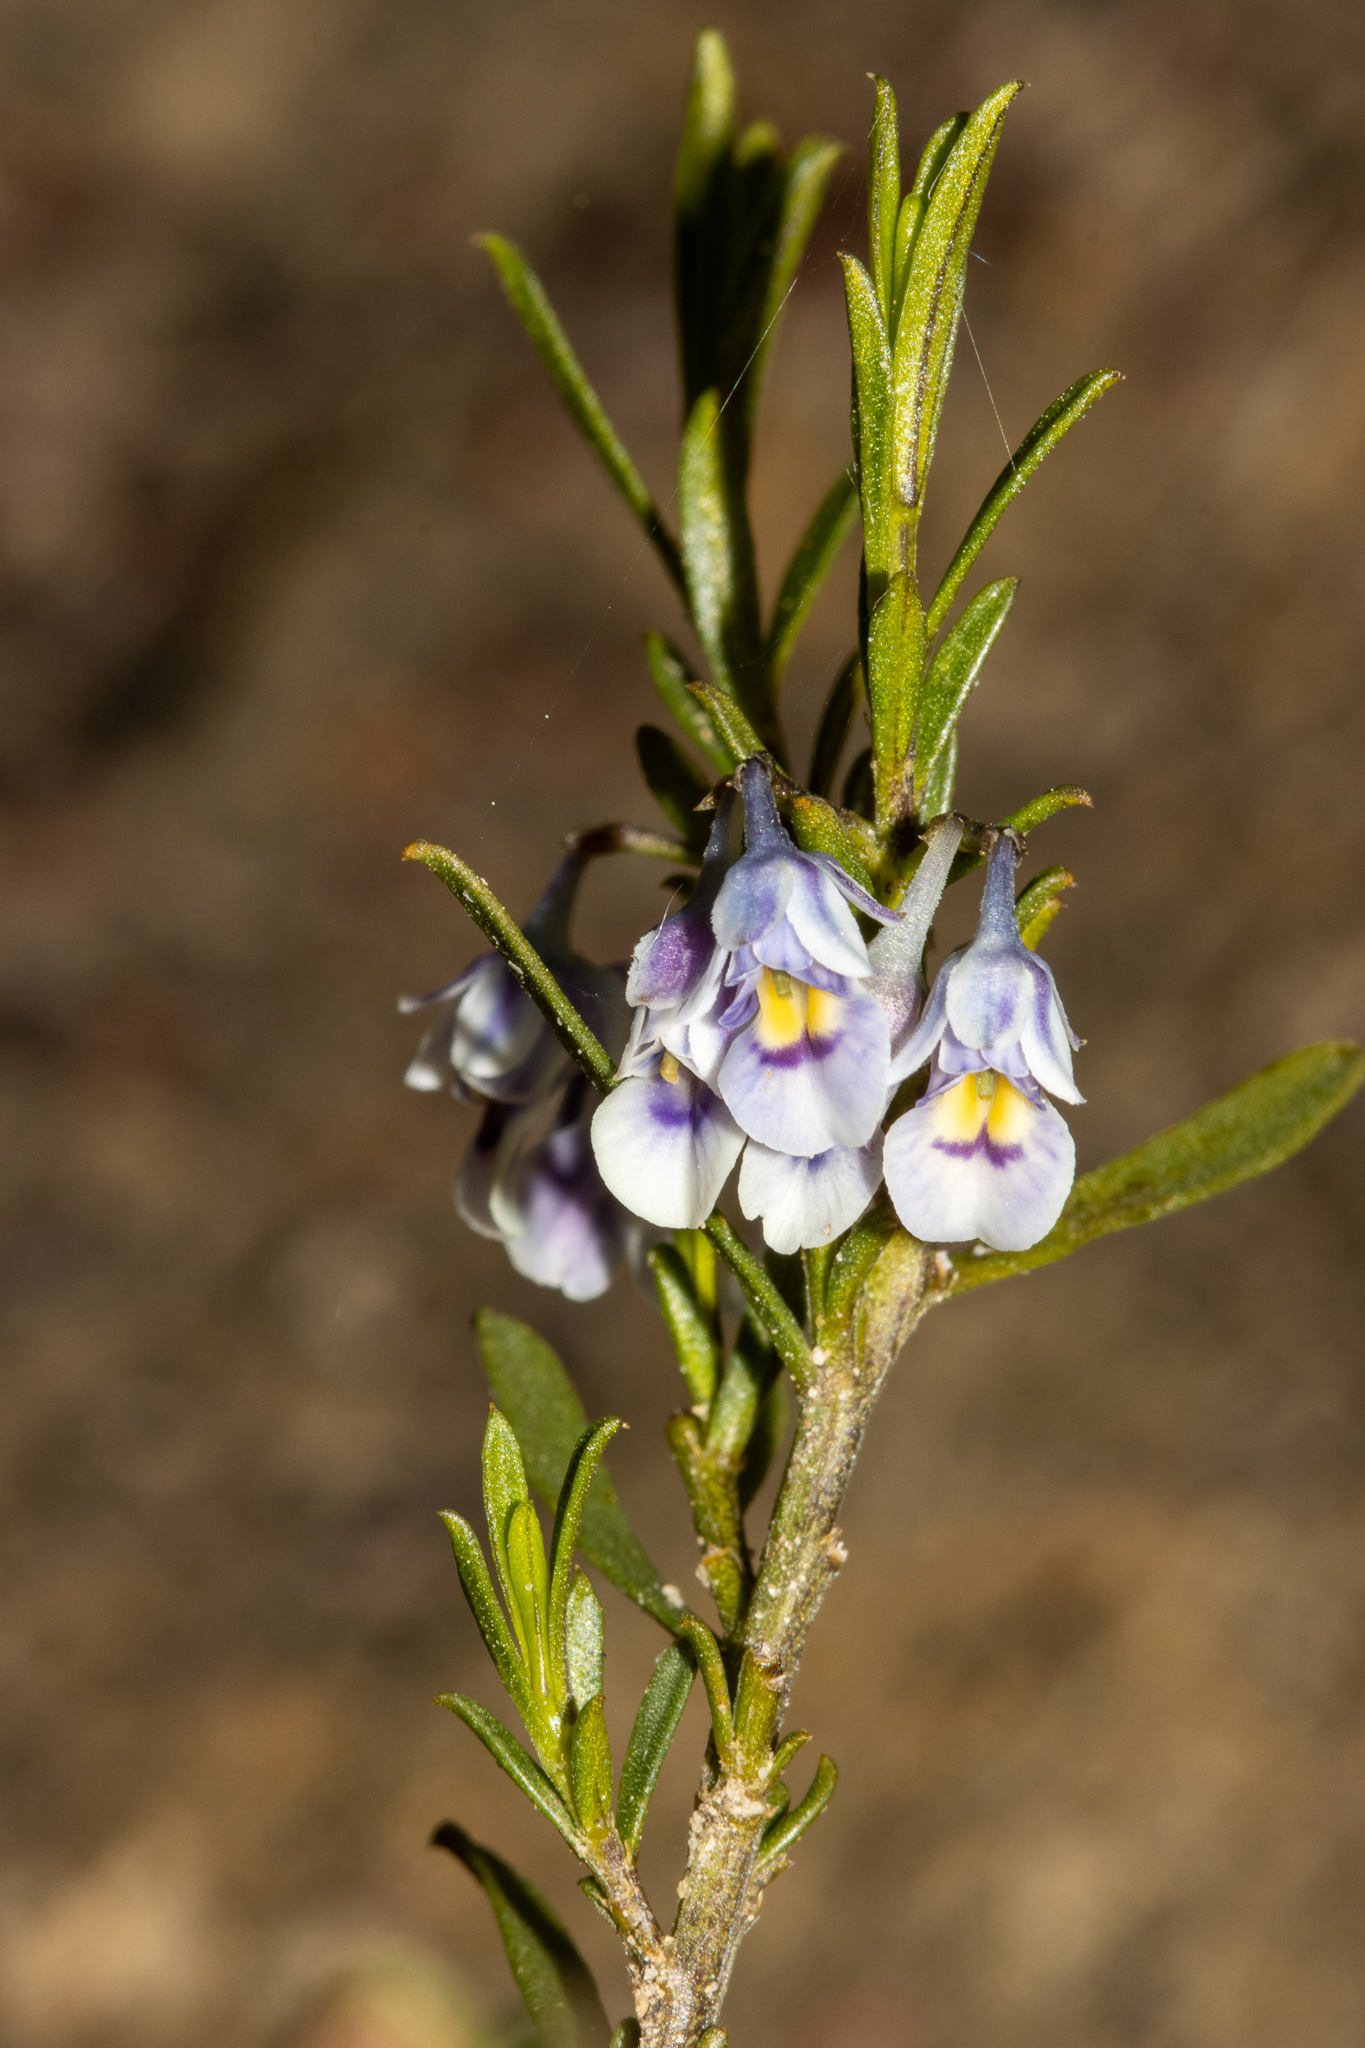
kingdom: Plantae
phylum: Tracheophyta
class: Magnoliopsida
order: Malpighiales
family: Violaceae
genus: Pigea
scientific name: Pigea floribunda
